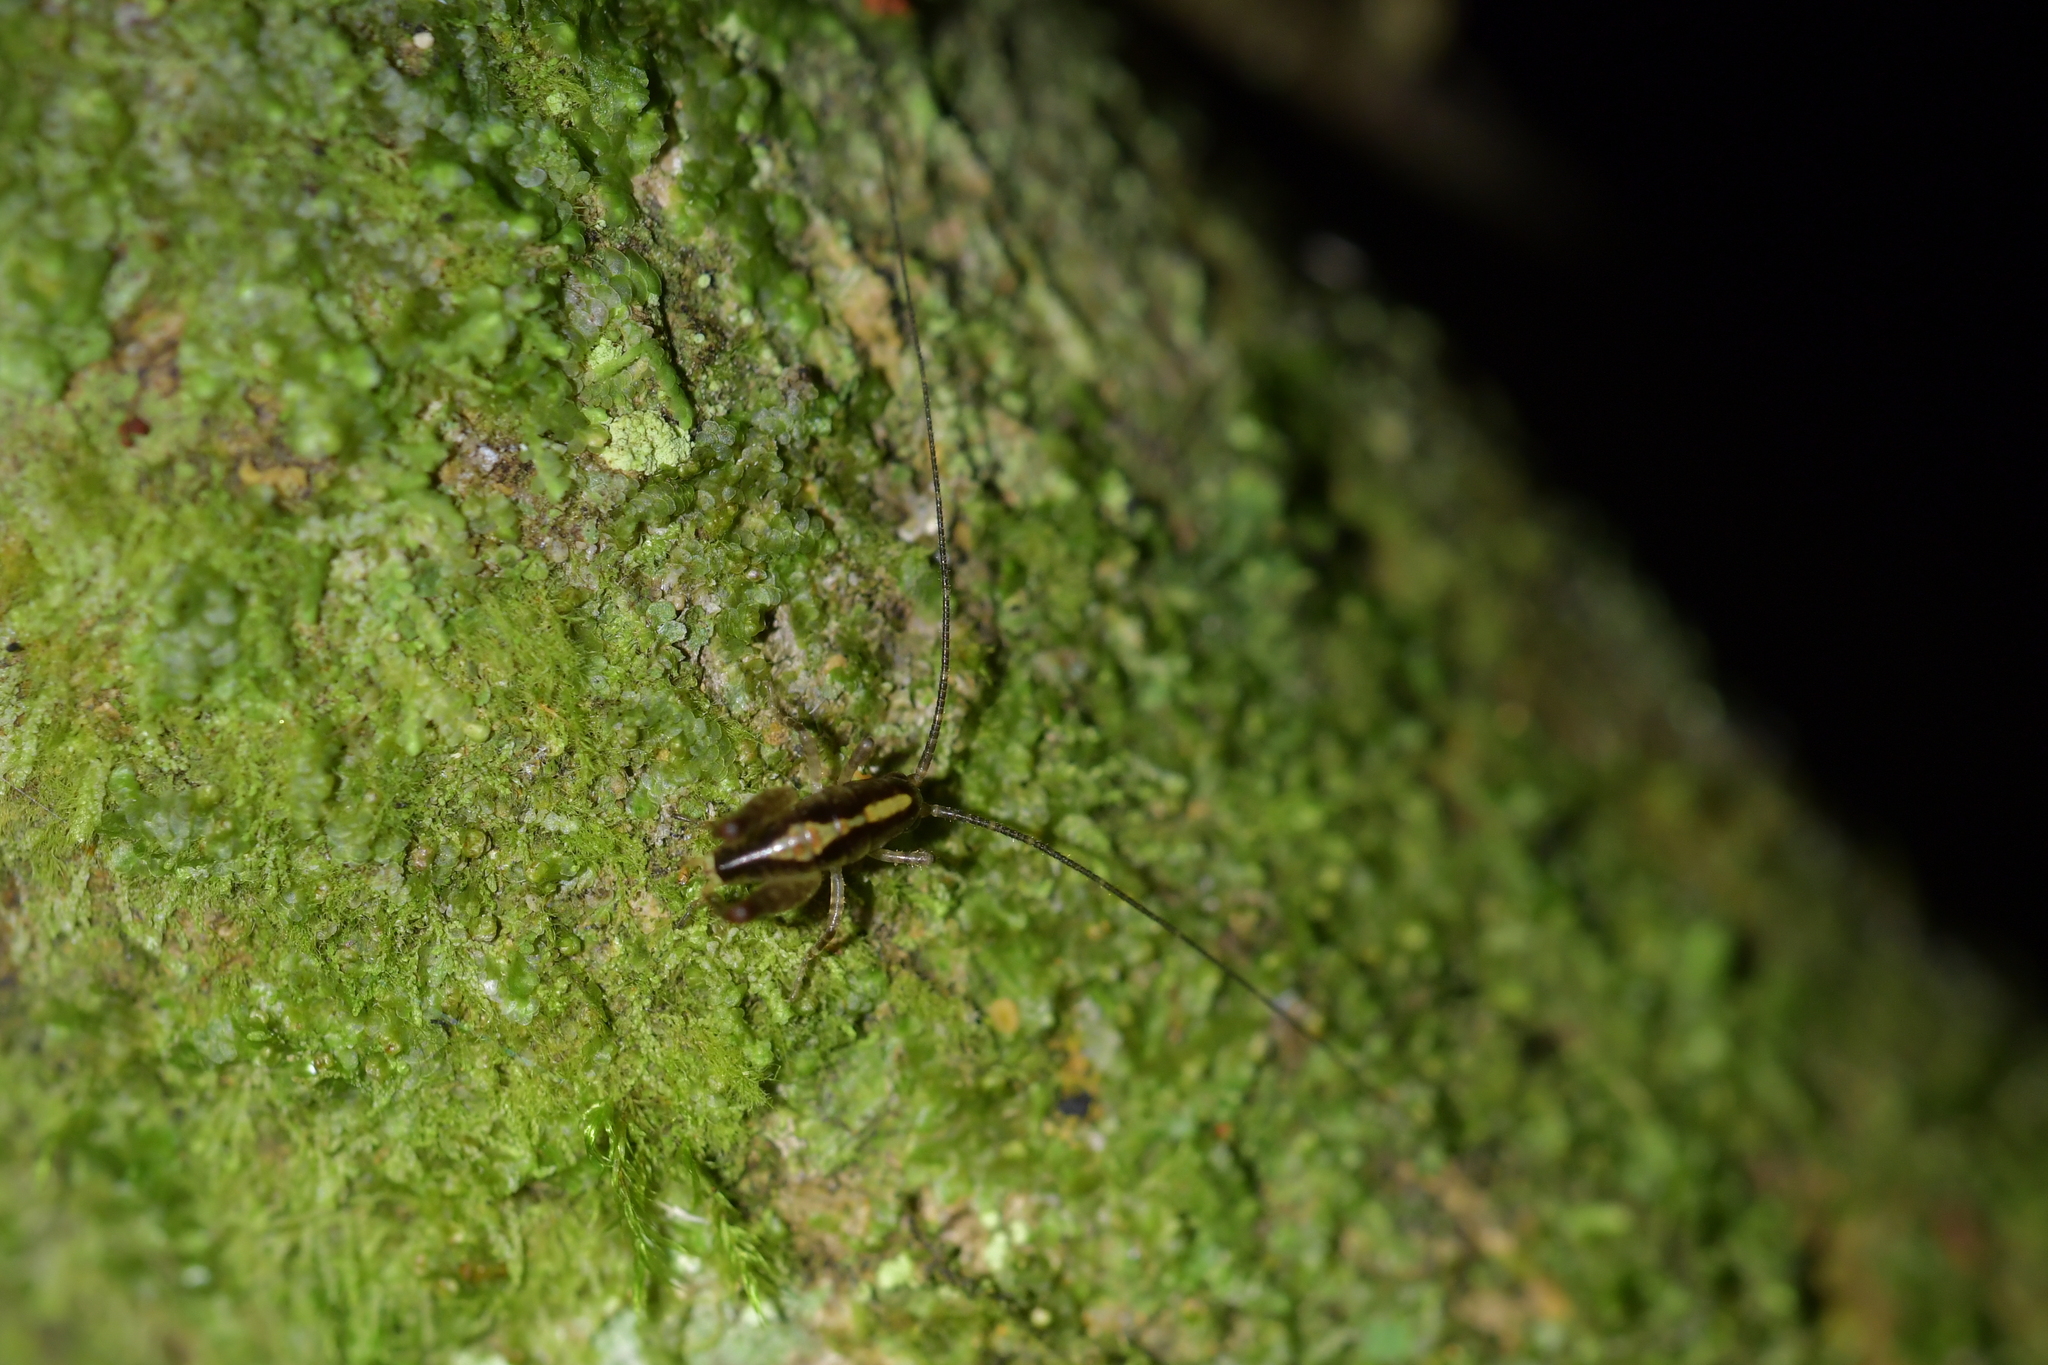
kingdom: Animalia
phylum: Arthropoda
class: Insecta
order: Orthoptera
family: Rhaphidophoridae
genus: Talitropsis
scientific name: Talitropsis sedilloti
